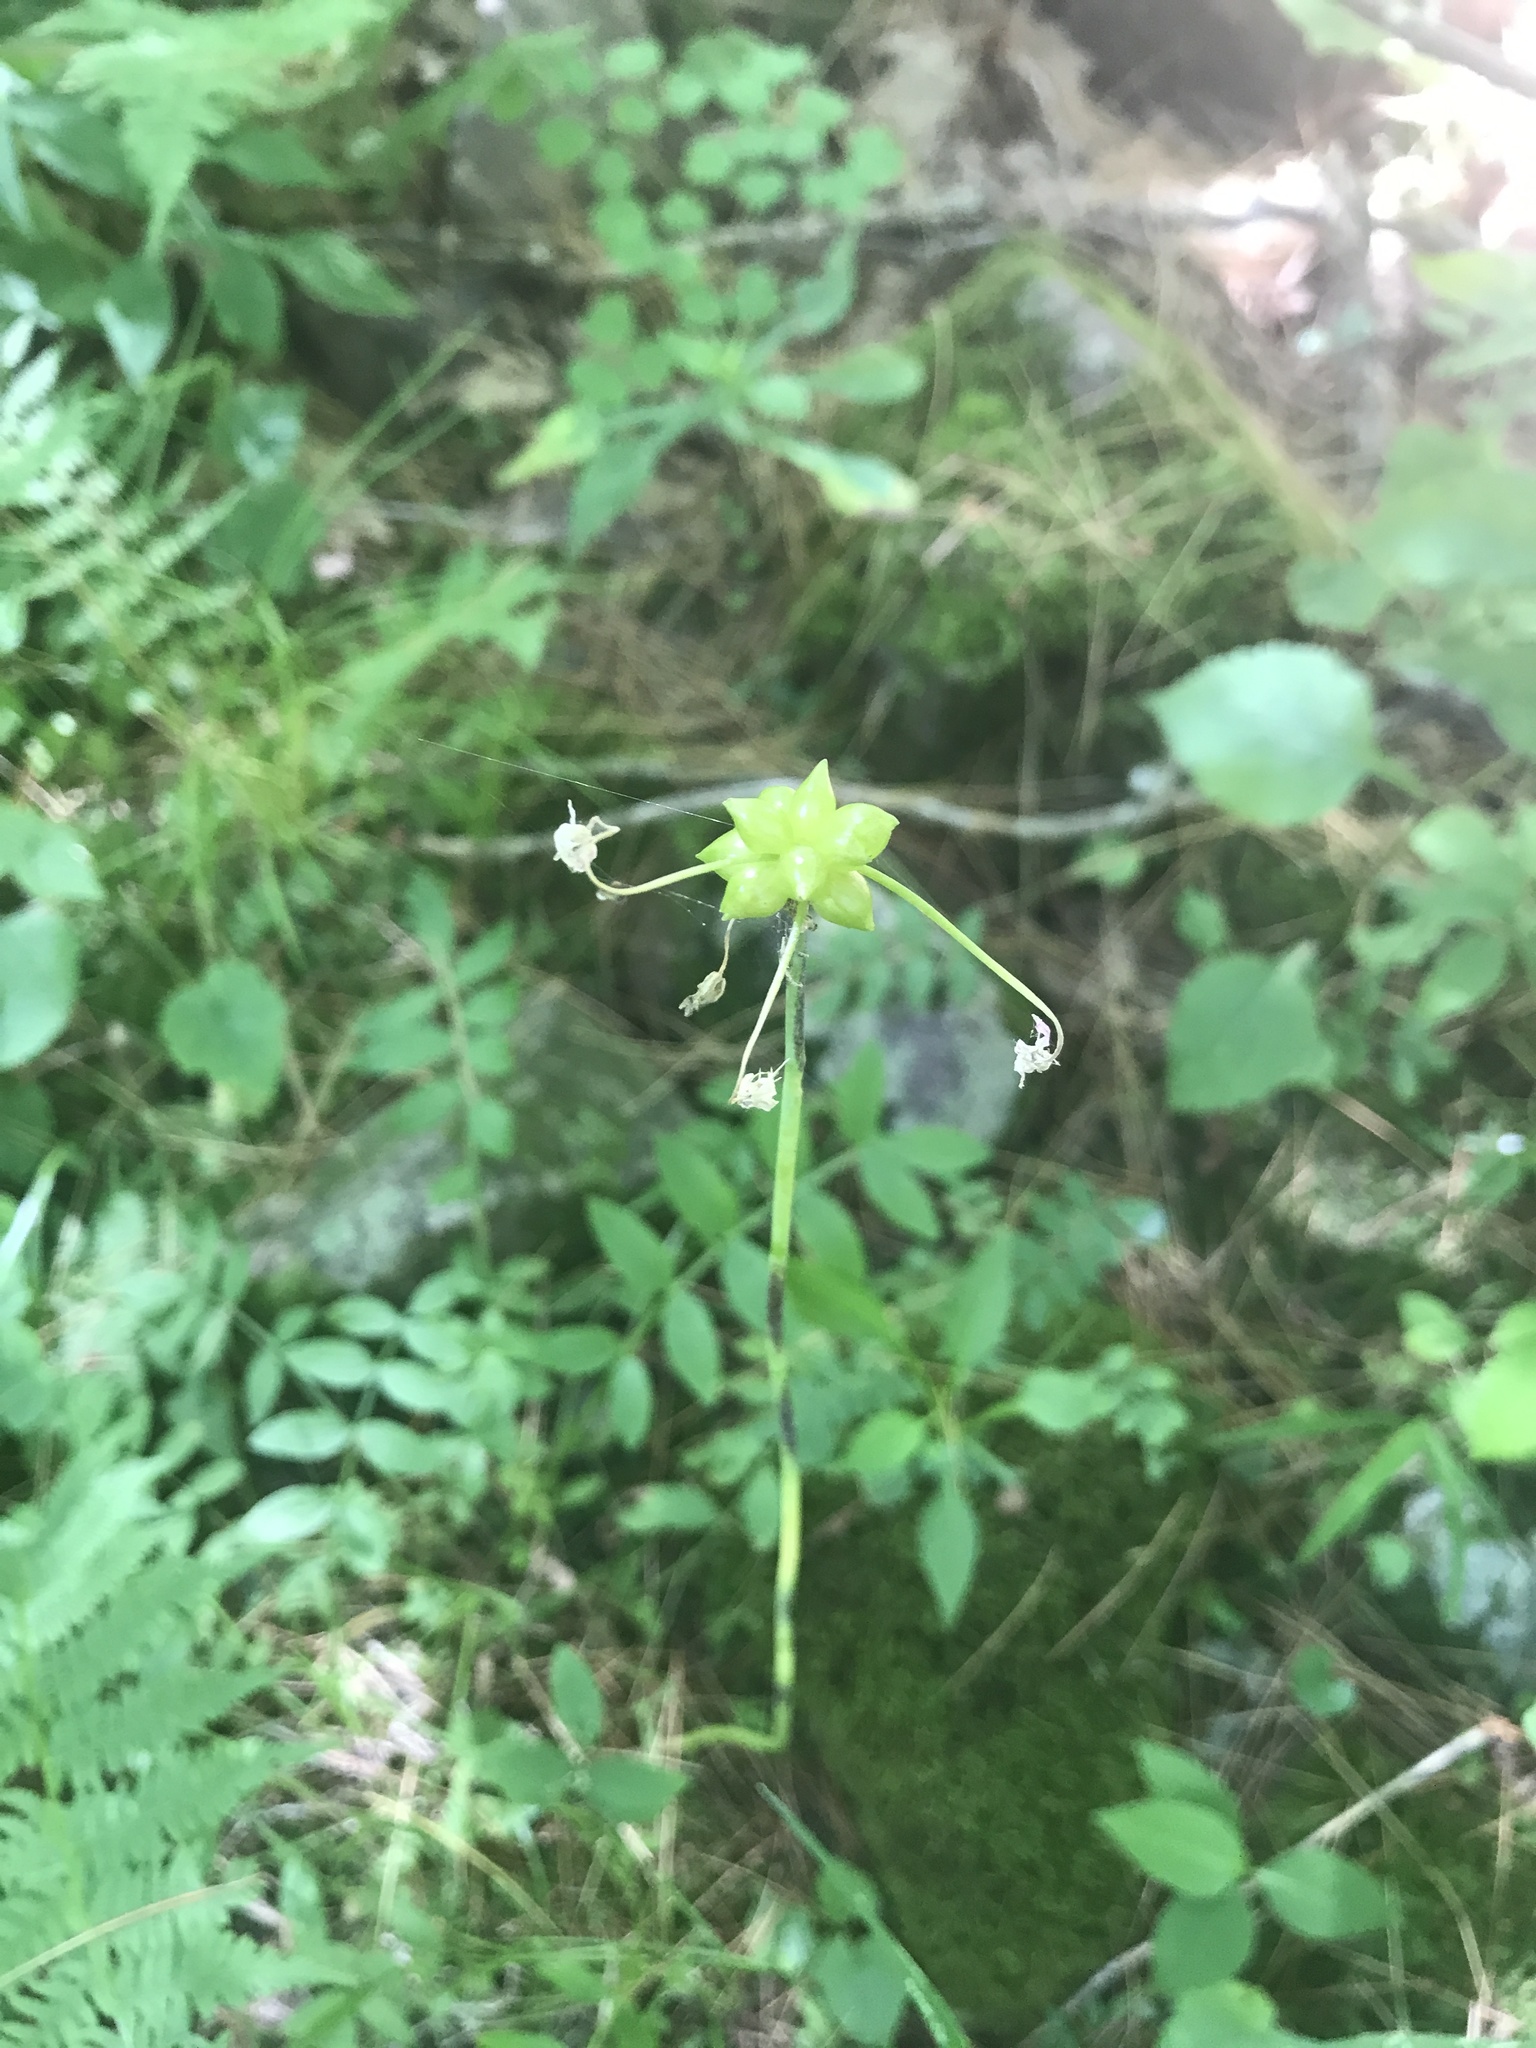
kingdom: Plantae
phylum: Tracheophyta
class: Liliopsida
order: Asparagales
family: Amaryllidaceae
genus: Allium
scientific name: Allium canadense
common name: Meadow garlic
